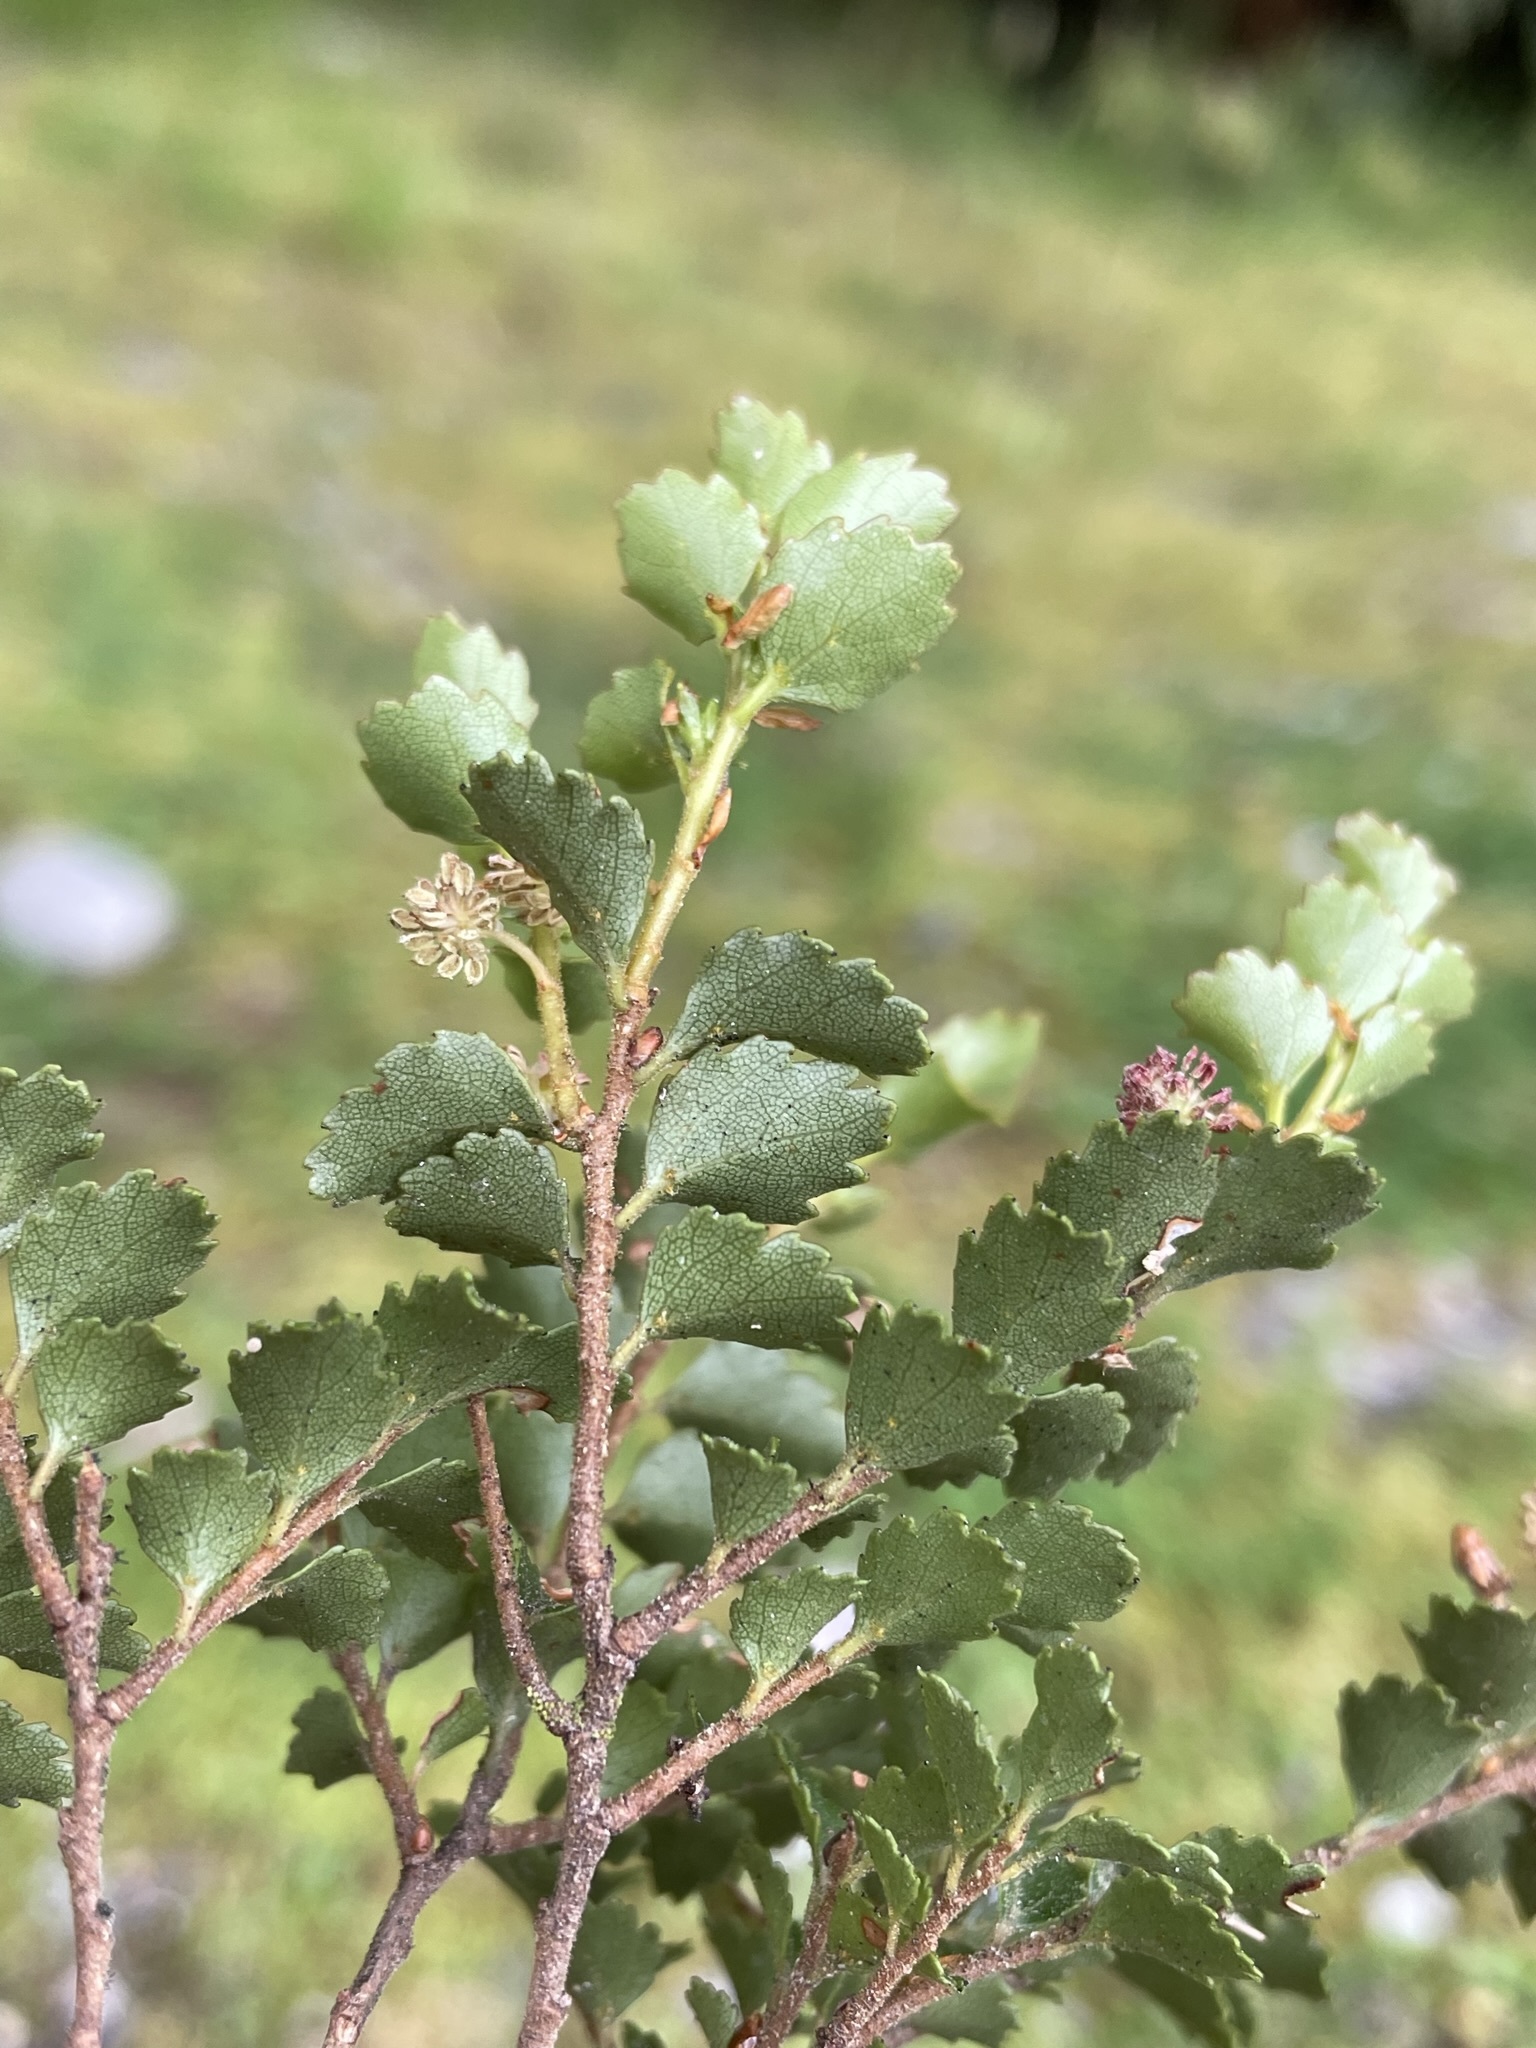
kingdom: Plantae
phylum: Tracheophyta
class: Magnoliopsida
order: Fagales
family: Nothofagaceae
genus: Nothofagus
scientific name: Nothofagus menziesii
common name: Silver beech
